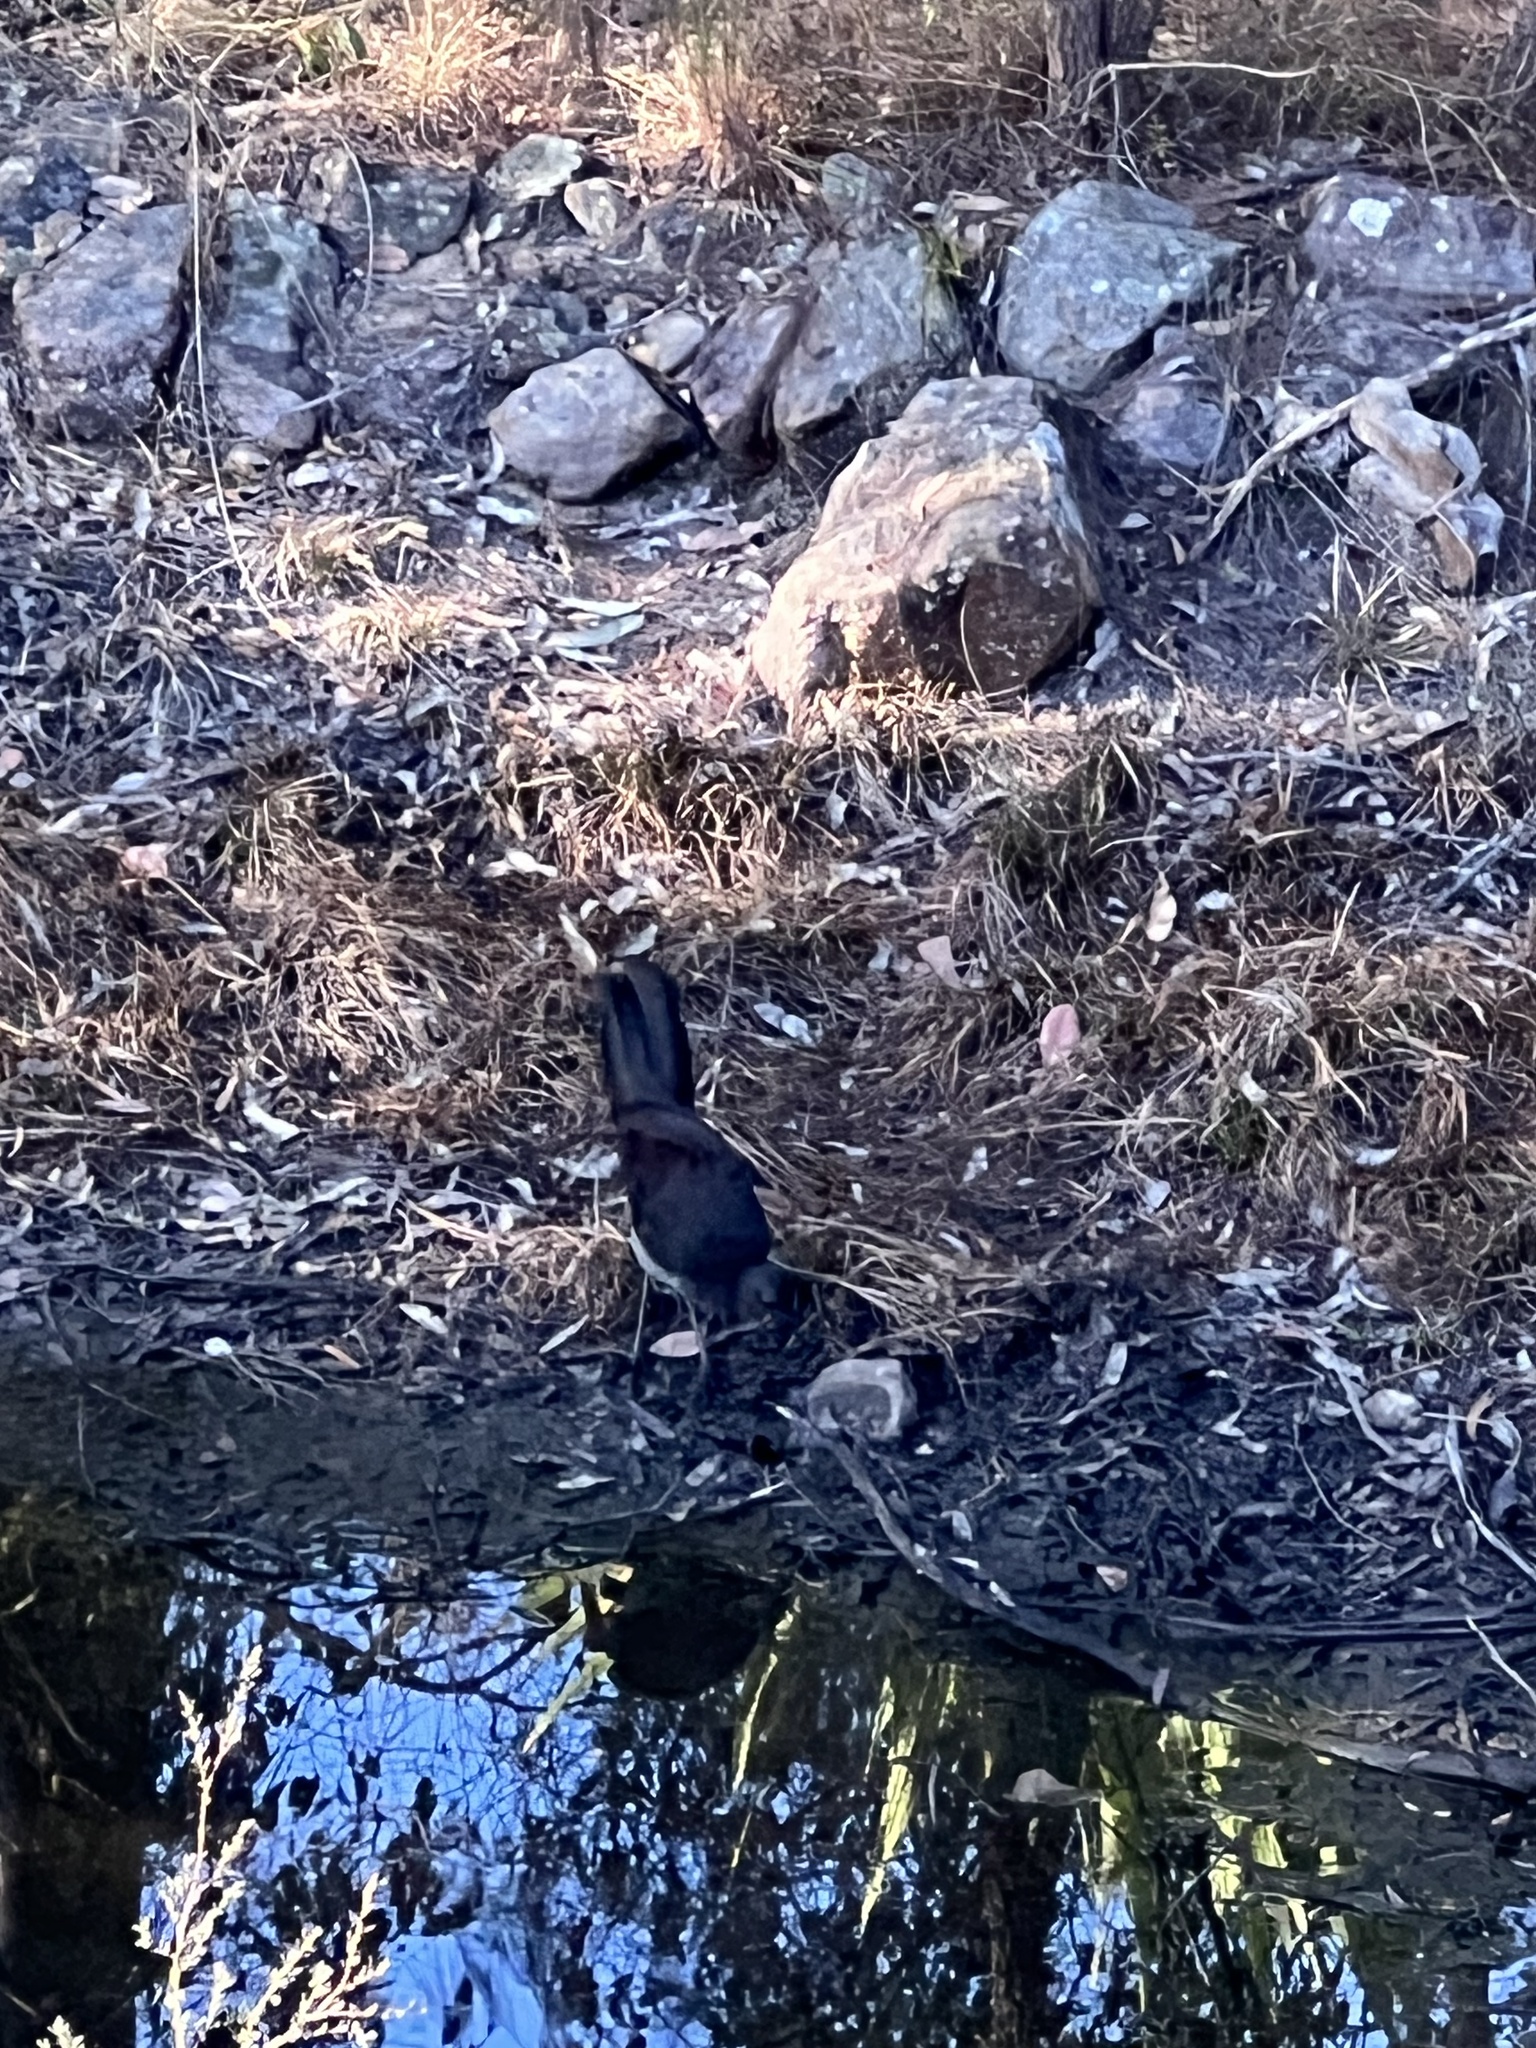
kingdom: Animalia
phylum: Chordata
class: Aves
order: Passeriformes
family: Menuridae
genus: Menura
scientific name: Menura novaehollandiae
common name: Superb lyrebird
